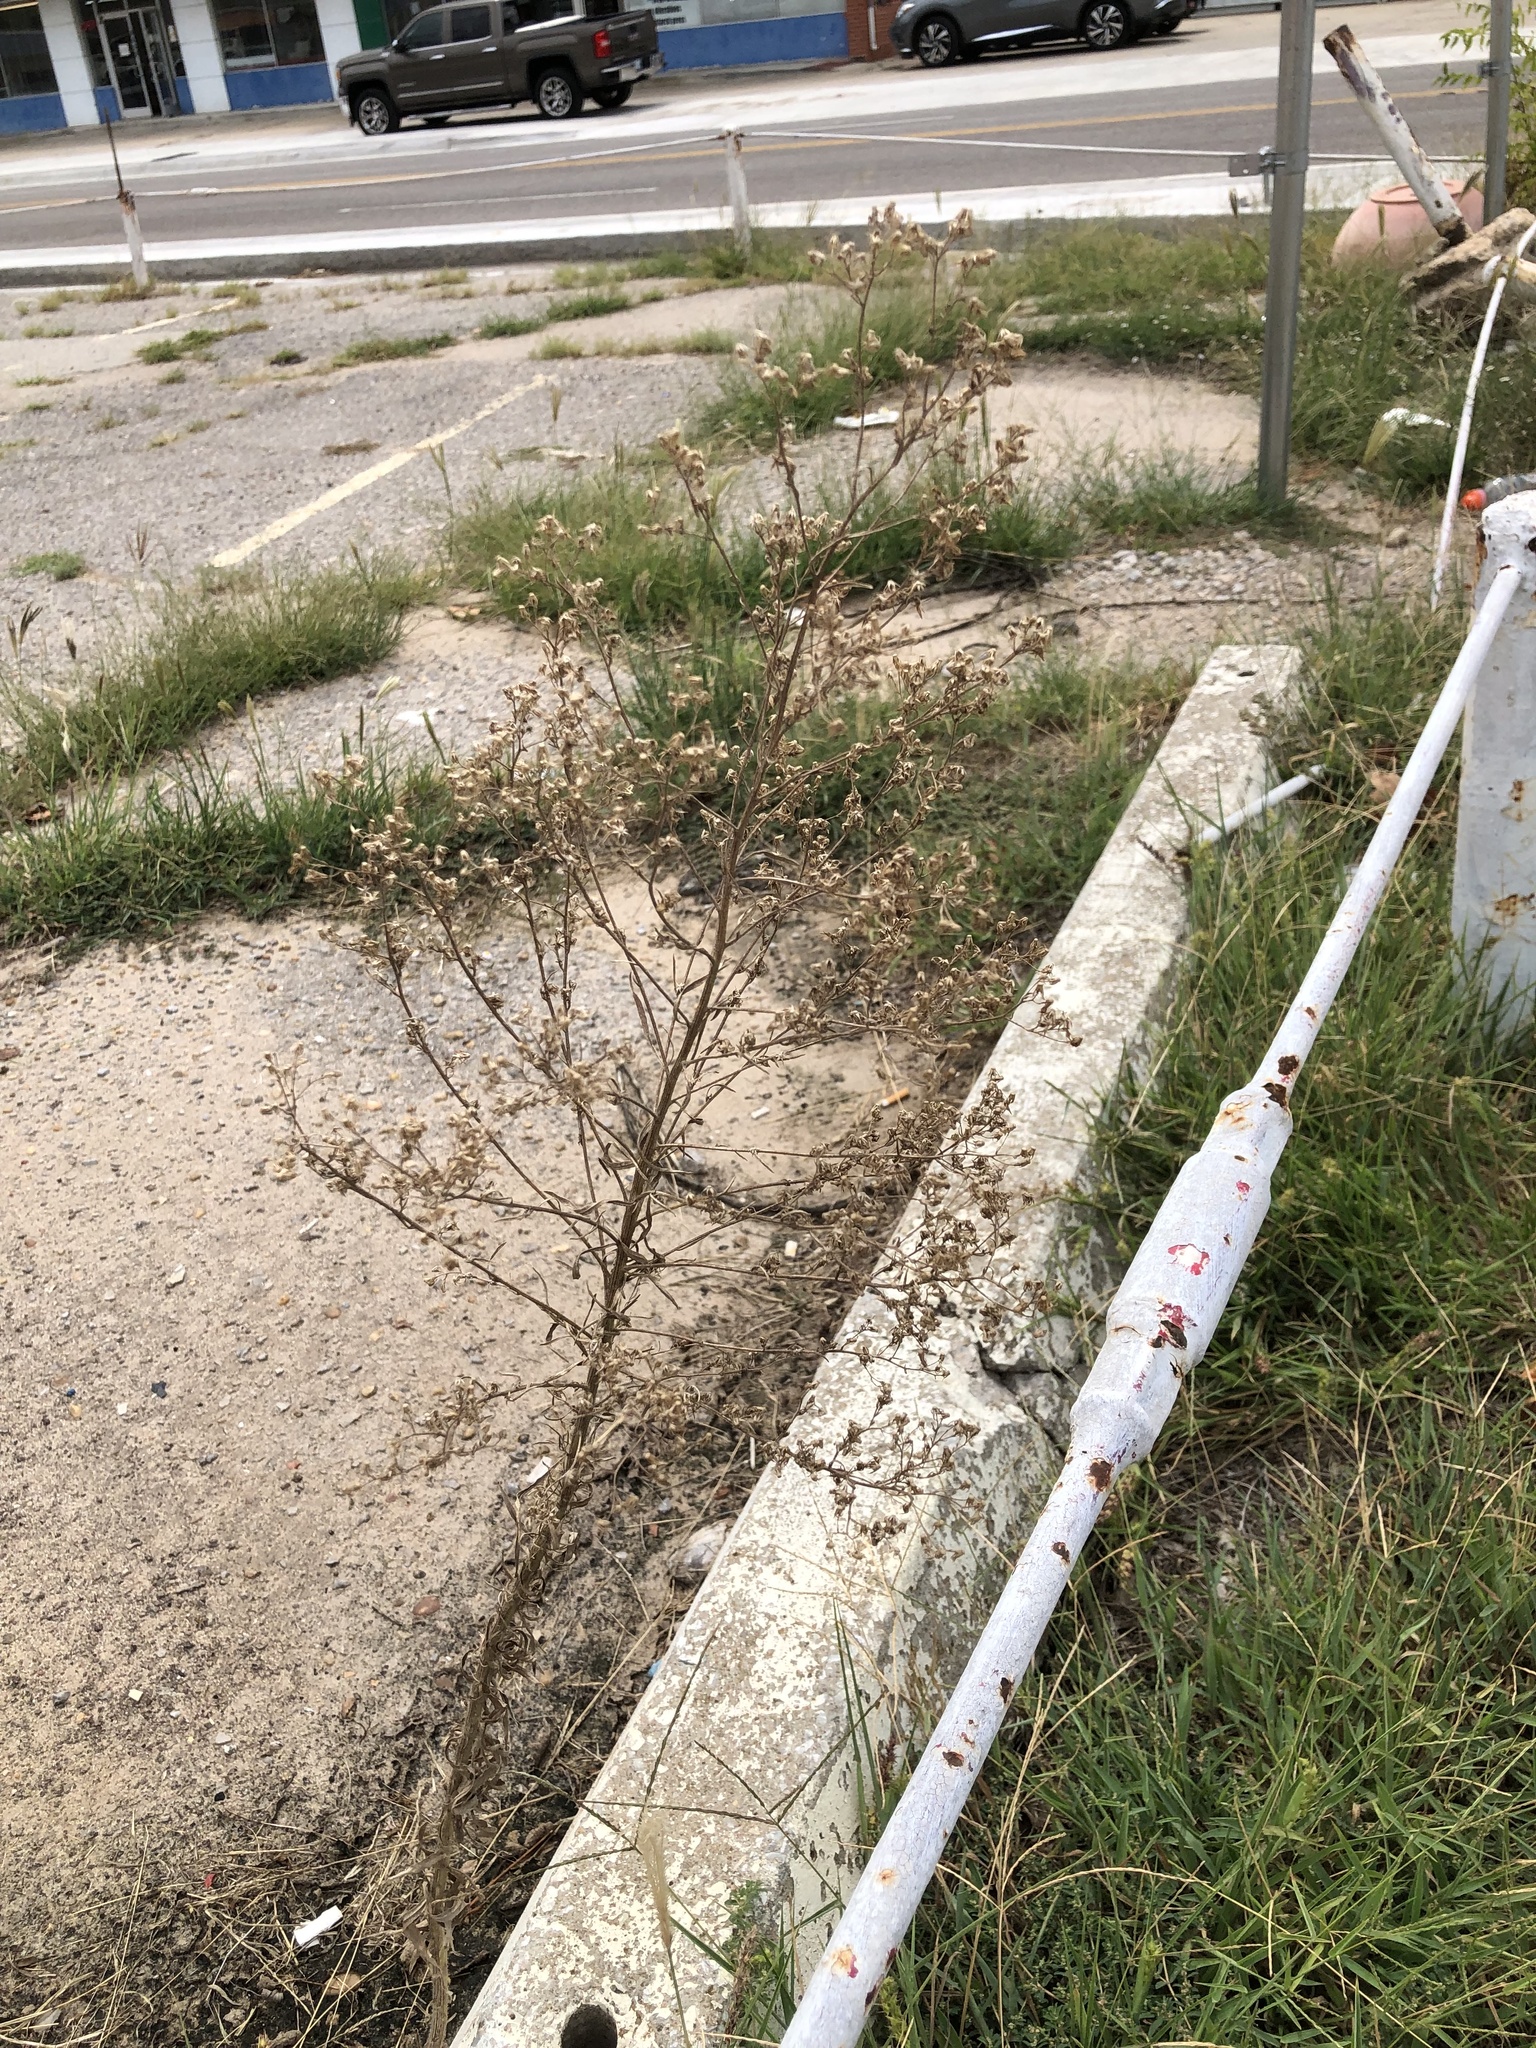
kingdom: Plantae
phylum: Tracheophyta
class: Magnoliopsida
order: Asterales
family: Asteraceae
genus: Erigeron
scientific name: Erigeron canadensis
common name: Canadian fleabane
